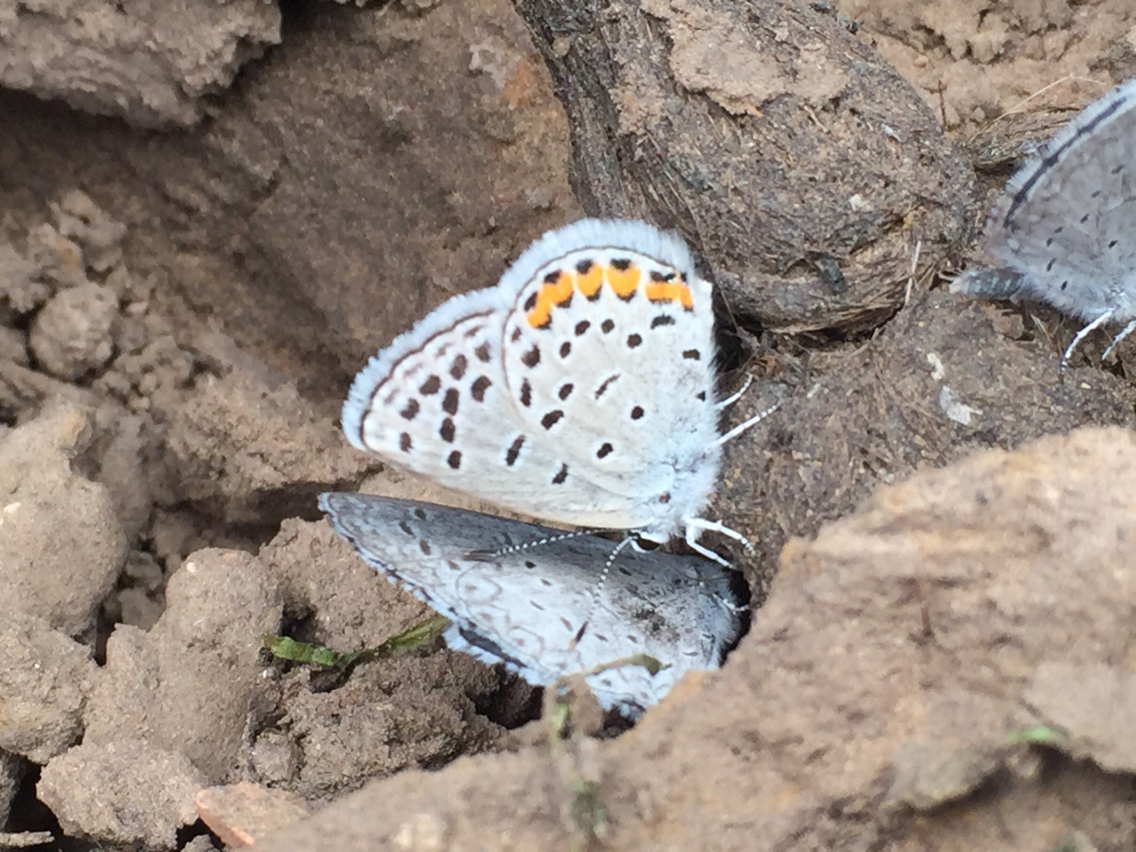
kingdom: Animalia
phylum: Arthropoda
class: Insecta
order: Lepidoptera
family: Lycaenidae
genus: Icaricia
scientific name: Icaricia lupini
